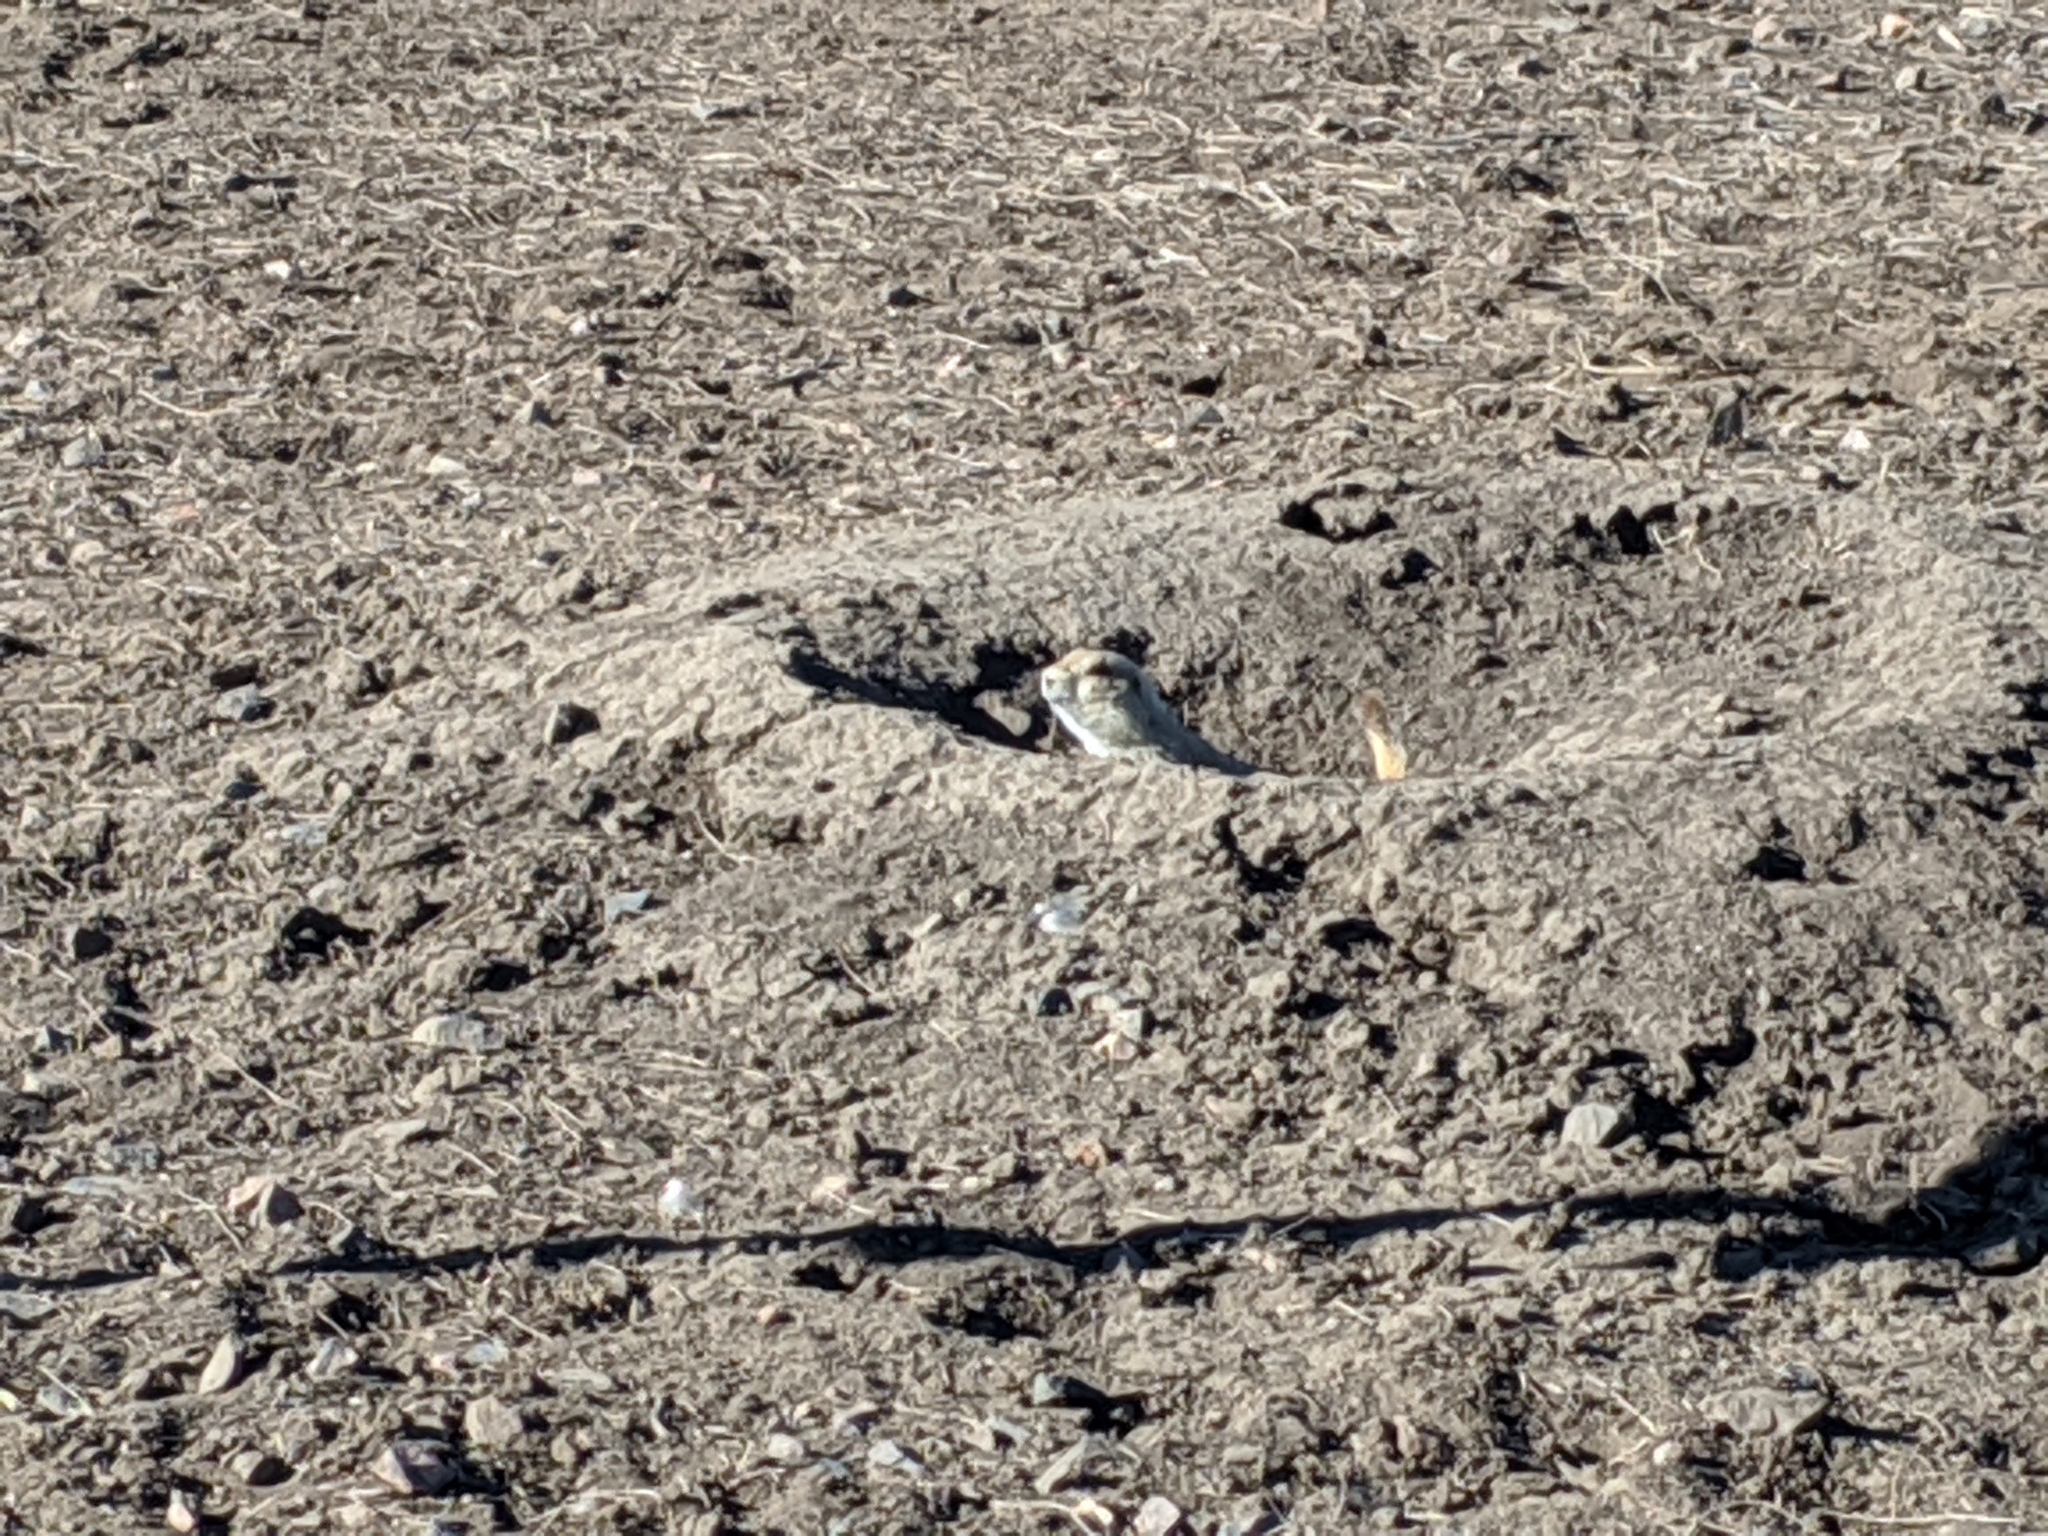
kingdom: Animalia
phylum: Chordata
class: Mammalia
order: Rodentia
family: Sciuridae
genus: Cynomys
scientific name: Cynomys ludovicianus
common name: Black-tailed prairie dog
